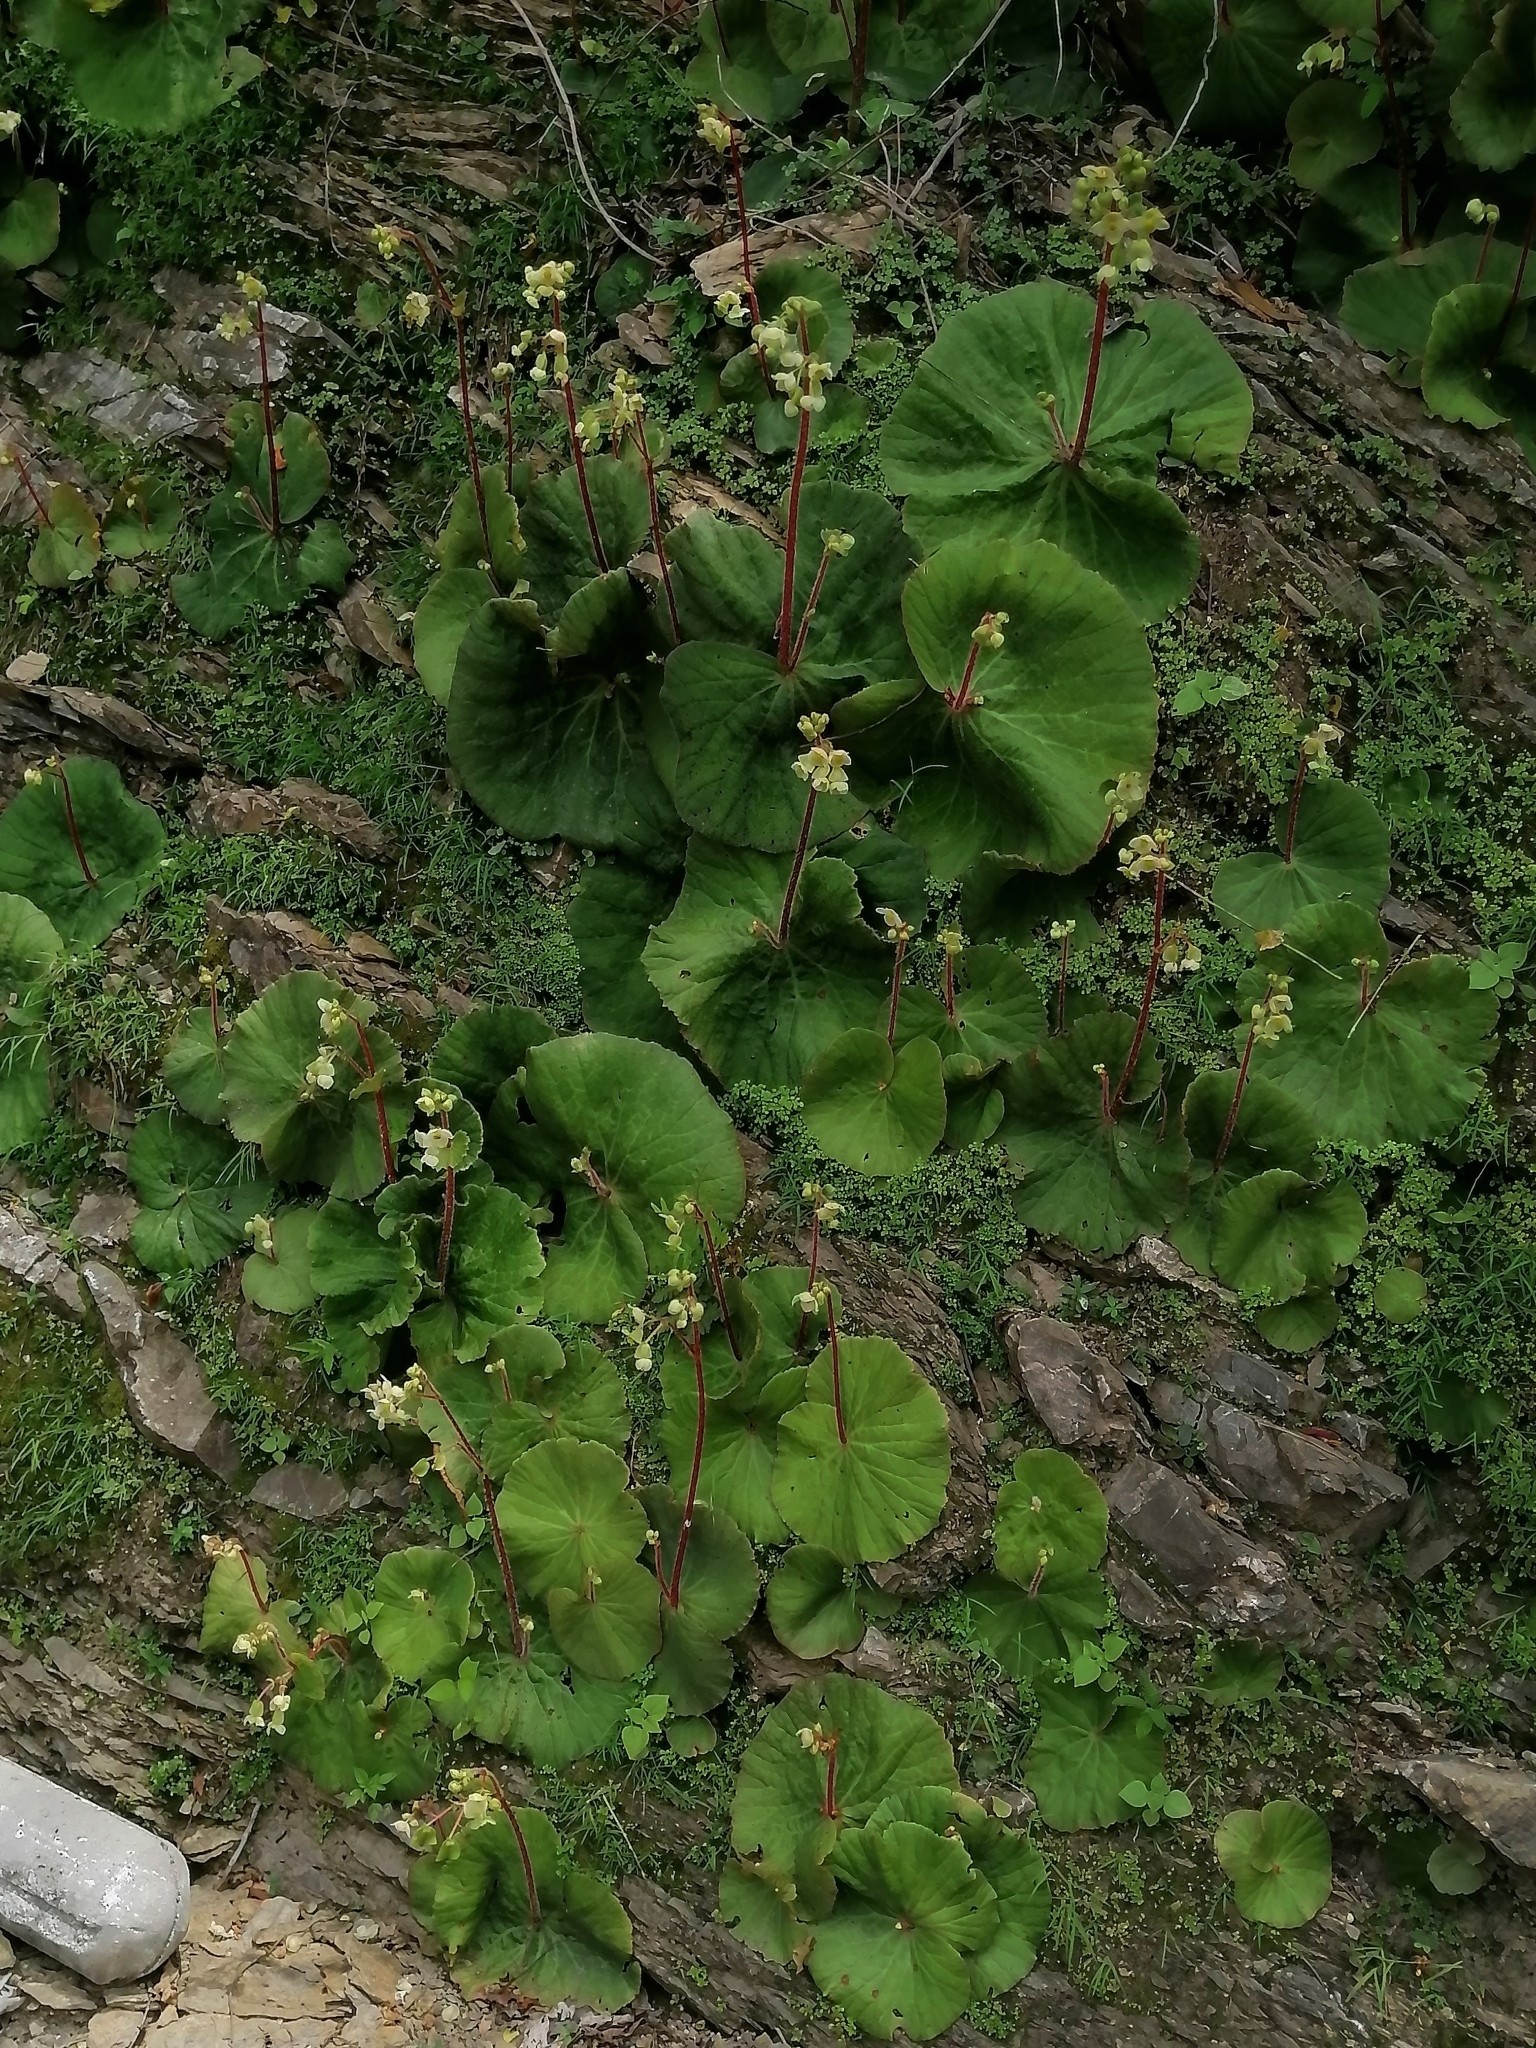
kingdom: Plantae
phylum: Tracheophyta
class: Magnoliopsida
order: Cucurbitales
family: Begoniaceae
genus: Begonia
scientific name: Begonia monophylla
